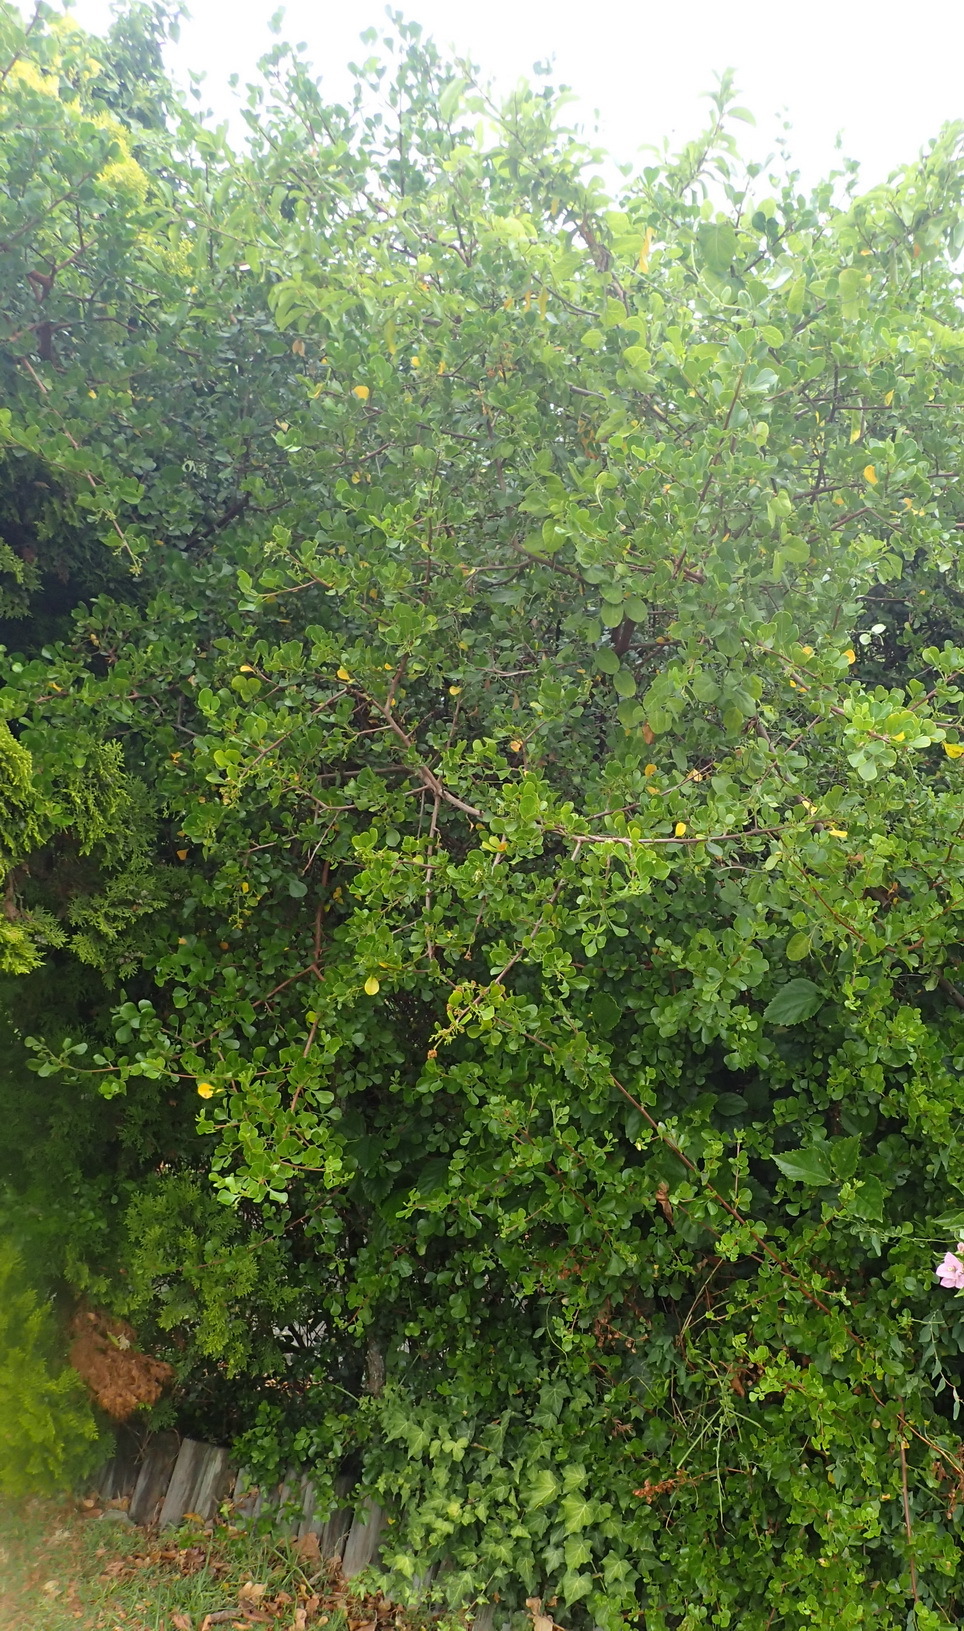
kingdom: Plantae
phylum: Tracheophyta
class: Magnoliopsida
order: Sapindales
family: Anacardiaceae
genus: Searsia
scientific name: Searsia glauca
